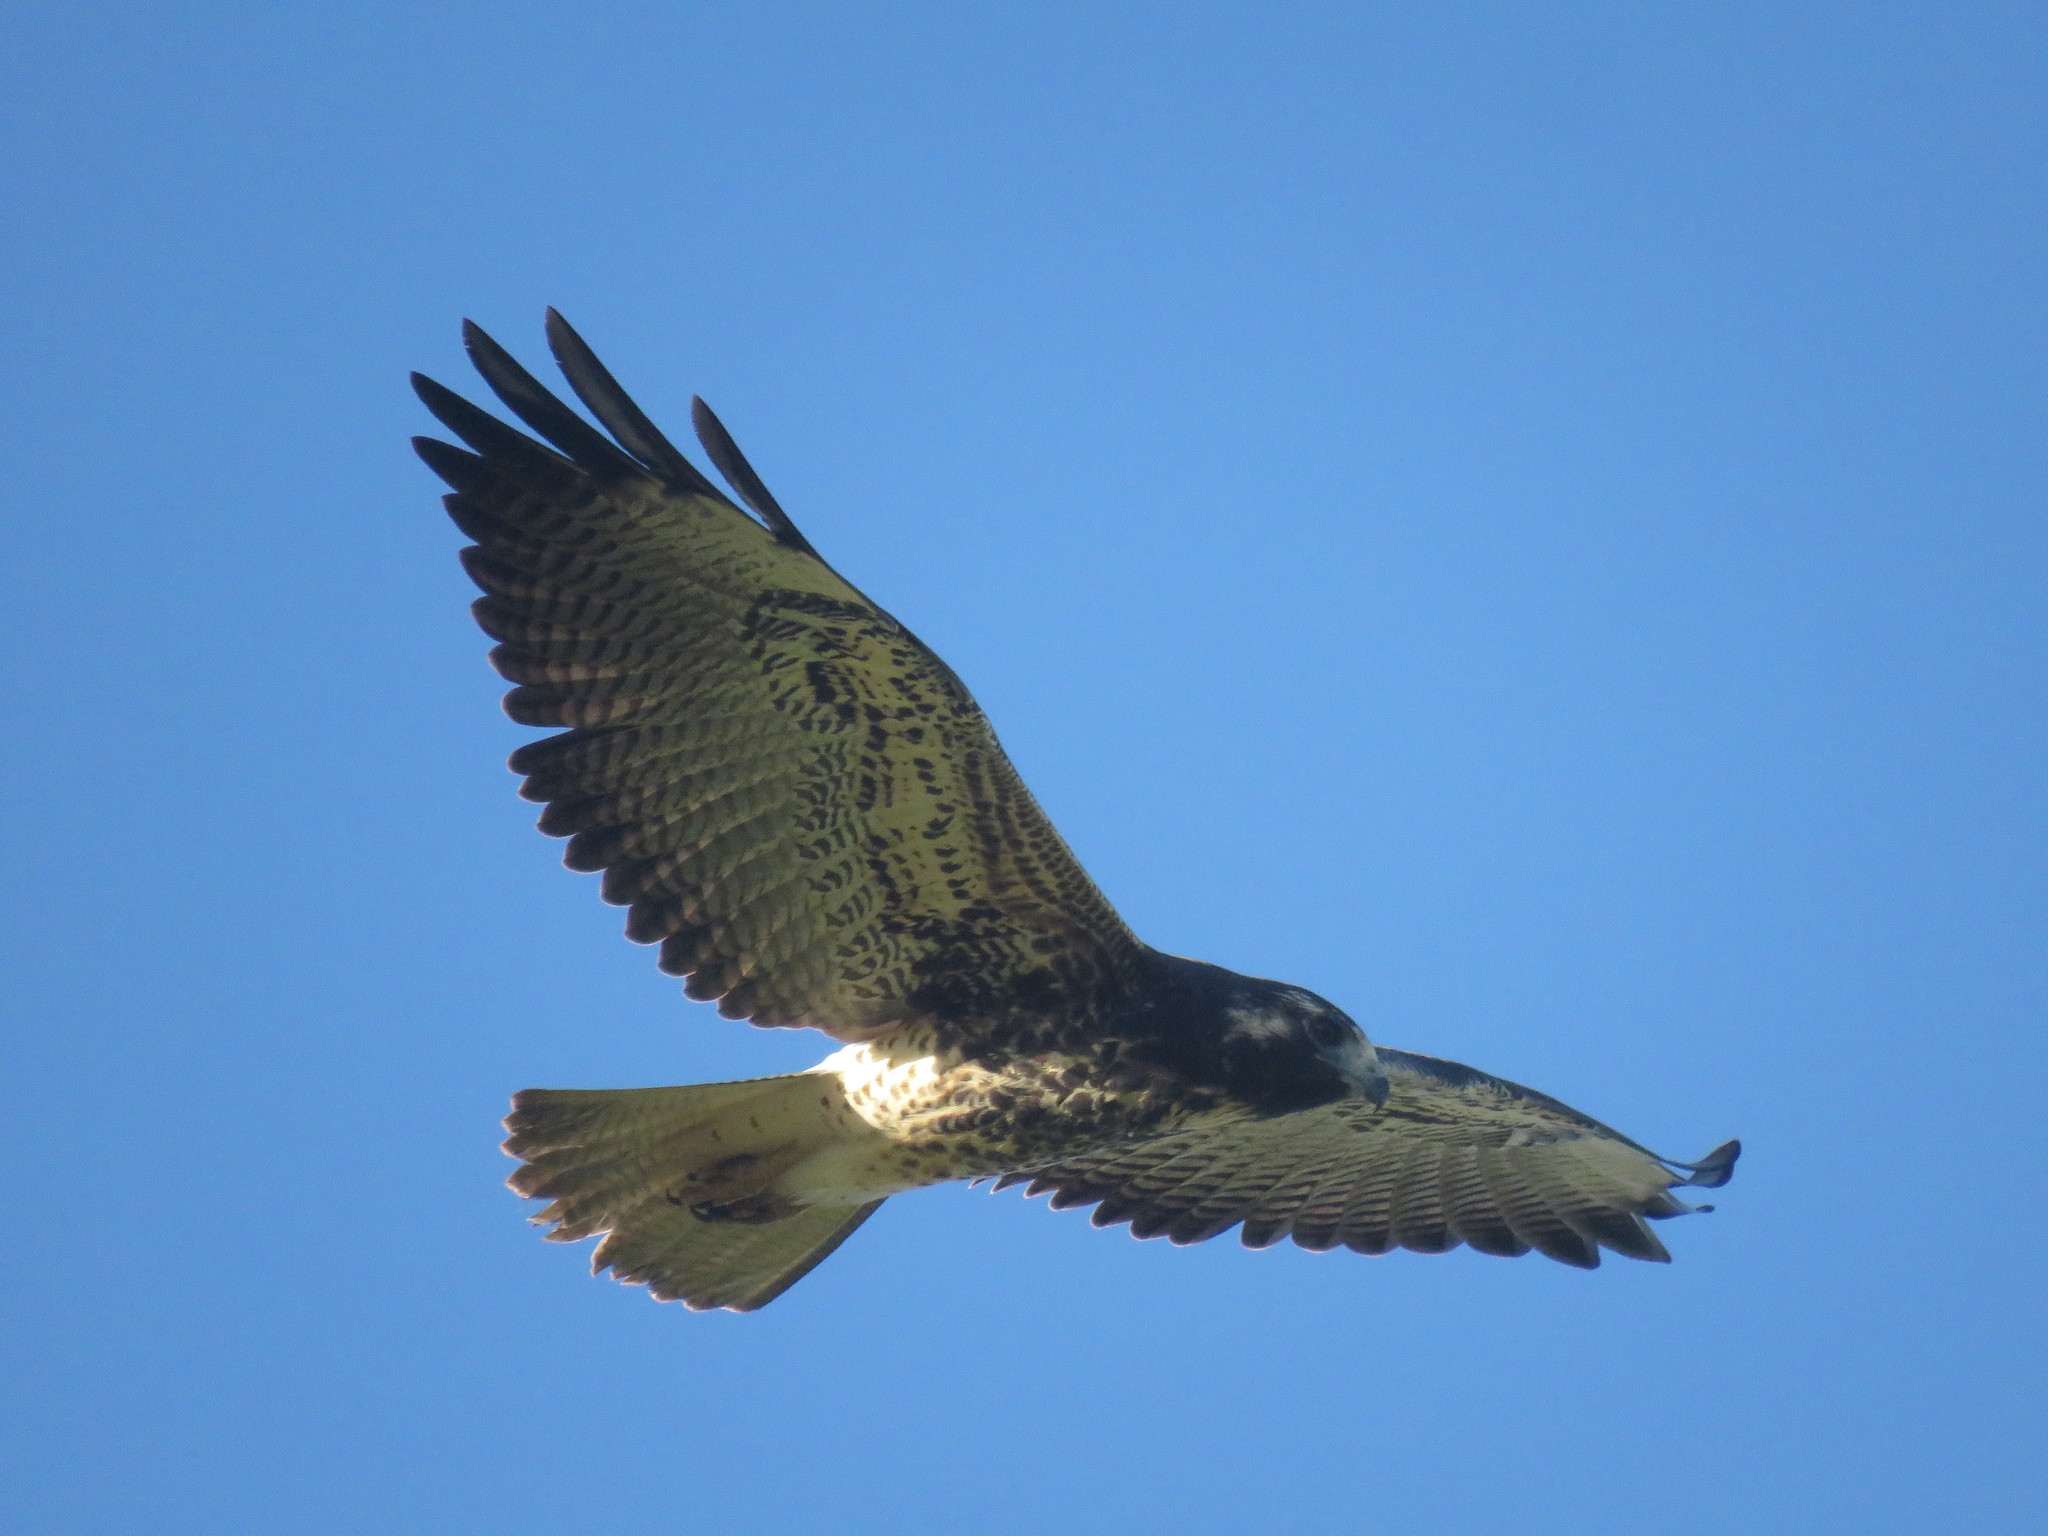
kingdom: Animalia
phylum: Chordata
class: Aves
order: Accipitriformes
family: Accipitridae
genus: Buteo
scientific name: Buteo albicaudatus
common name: White-tailed hawk
